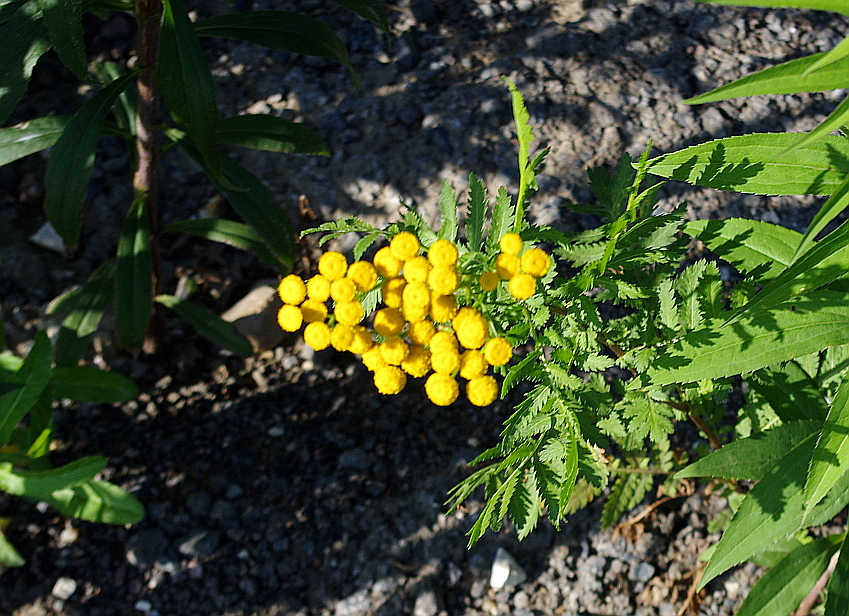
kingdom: Plantae
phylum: Tracheophyta
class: Magnoliopsida
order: Asterales
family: Asteraceae
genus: Tanacetum
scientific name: Tanacetum vulgare
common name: Common tansy
